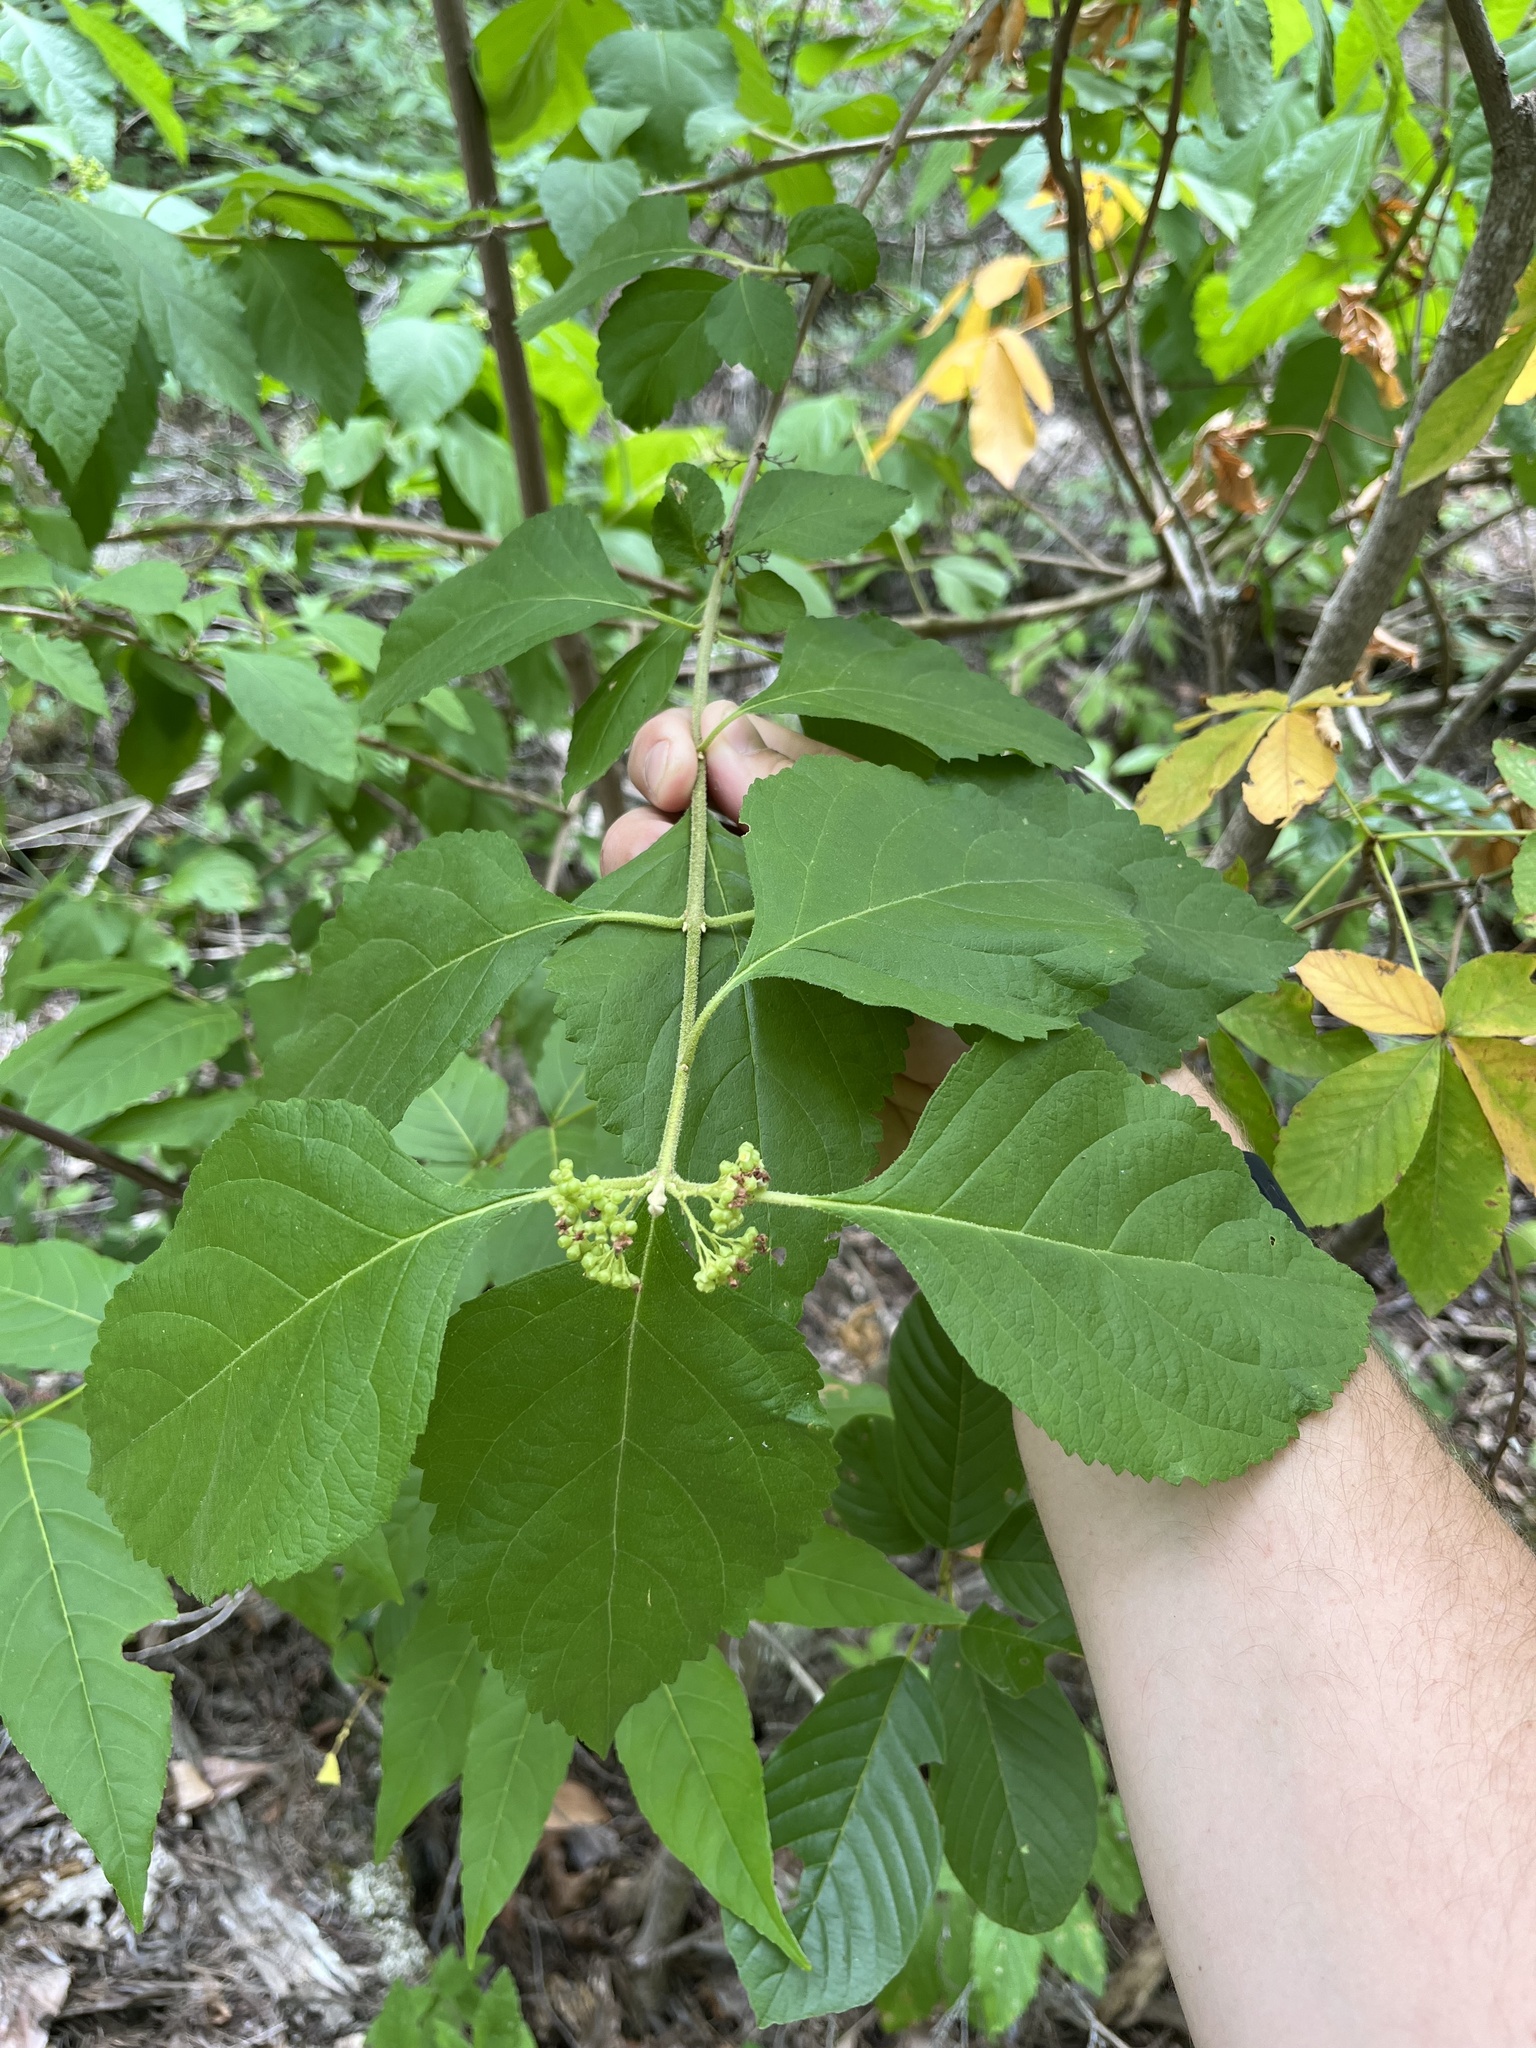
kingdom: Plantae
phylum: Tracheophyta
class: Magnoliopsida
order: Lamiales
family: Lamiaceae
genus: Callicarpa
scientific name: Callicarpa americana
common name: American beautyberry
